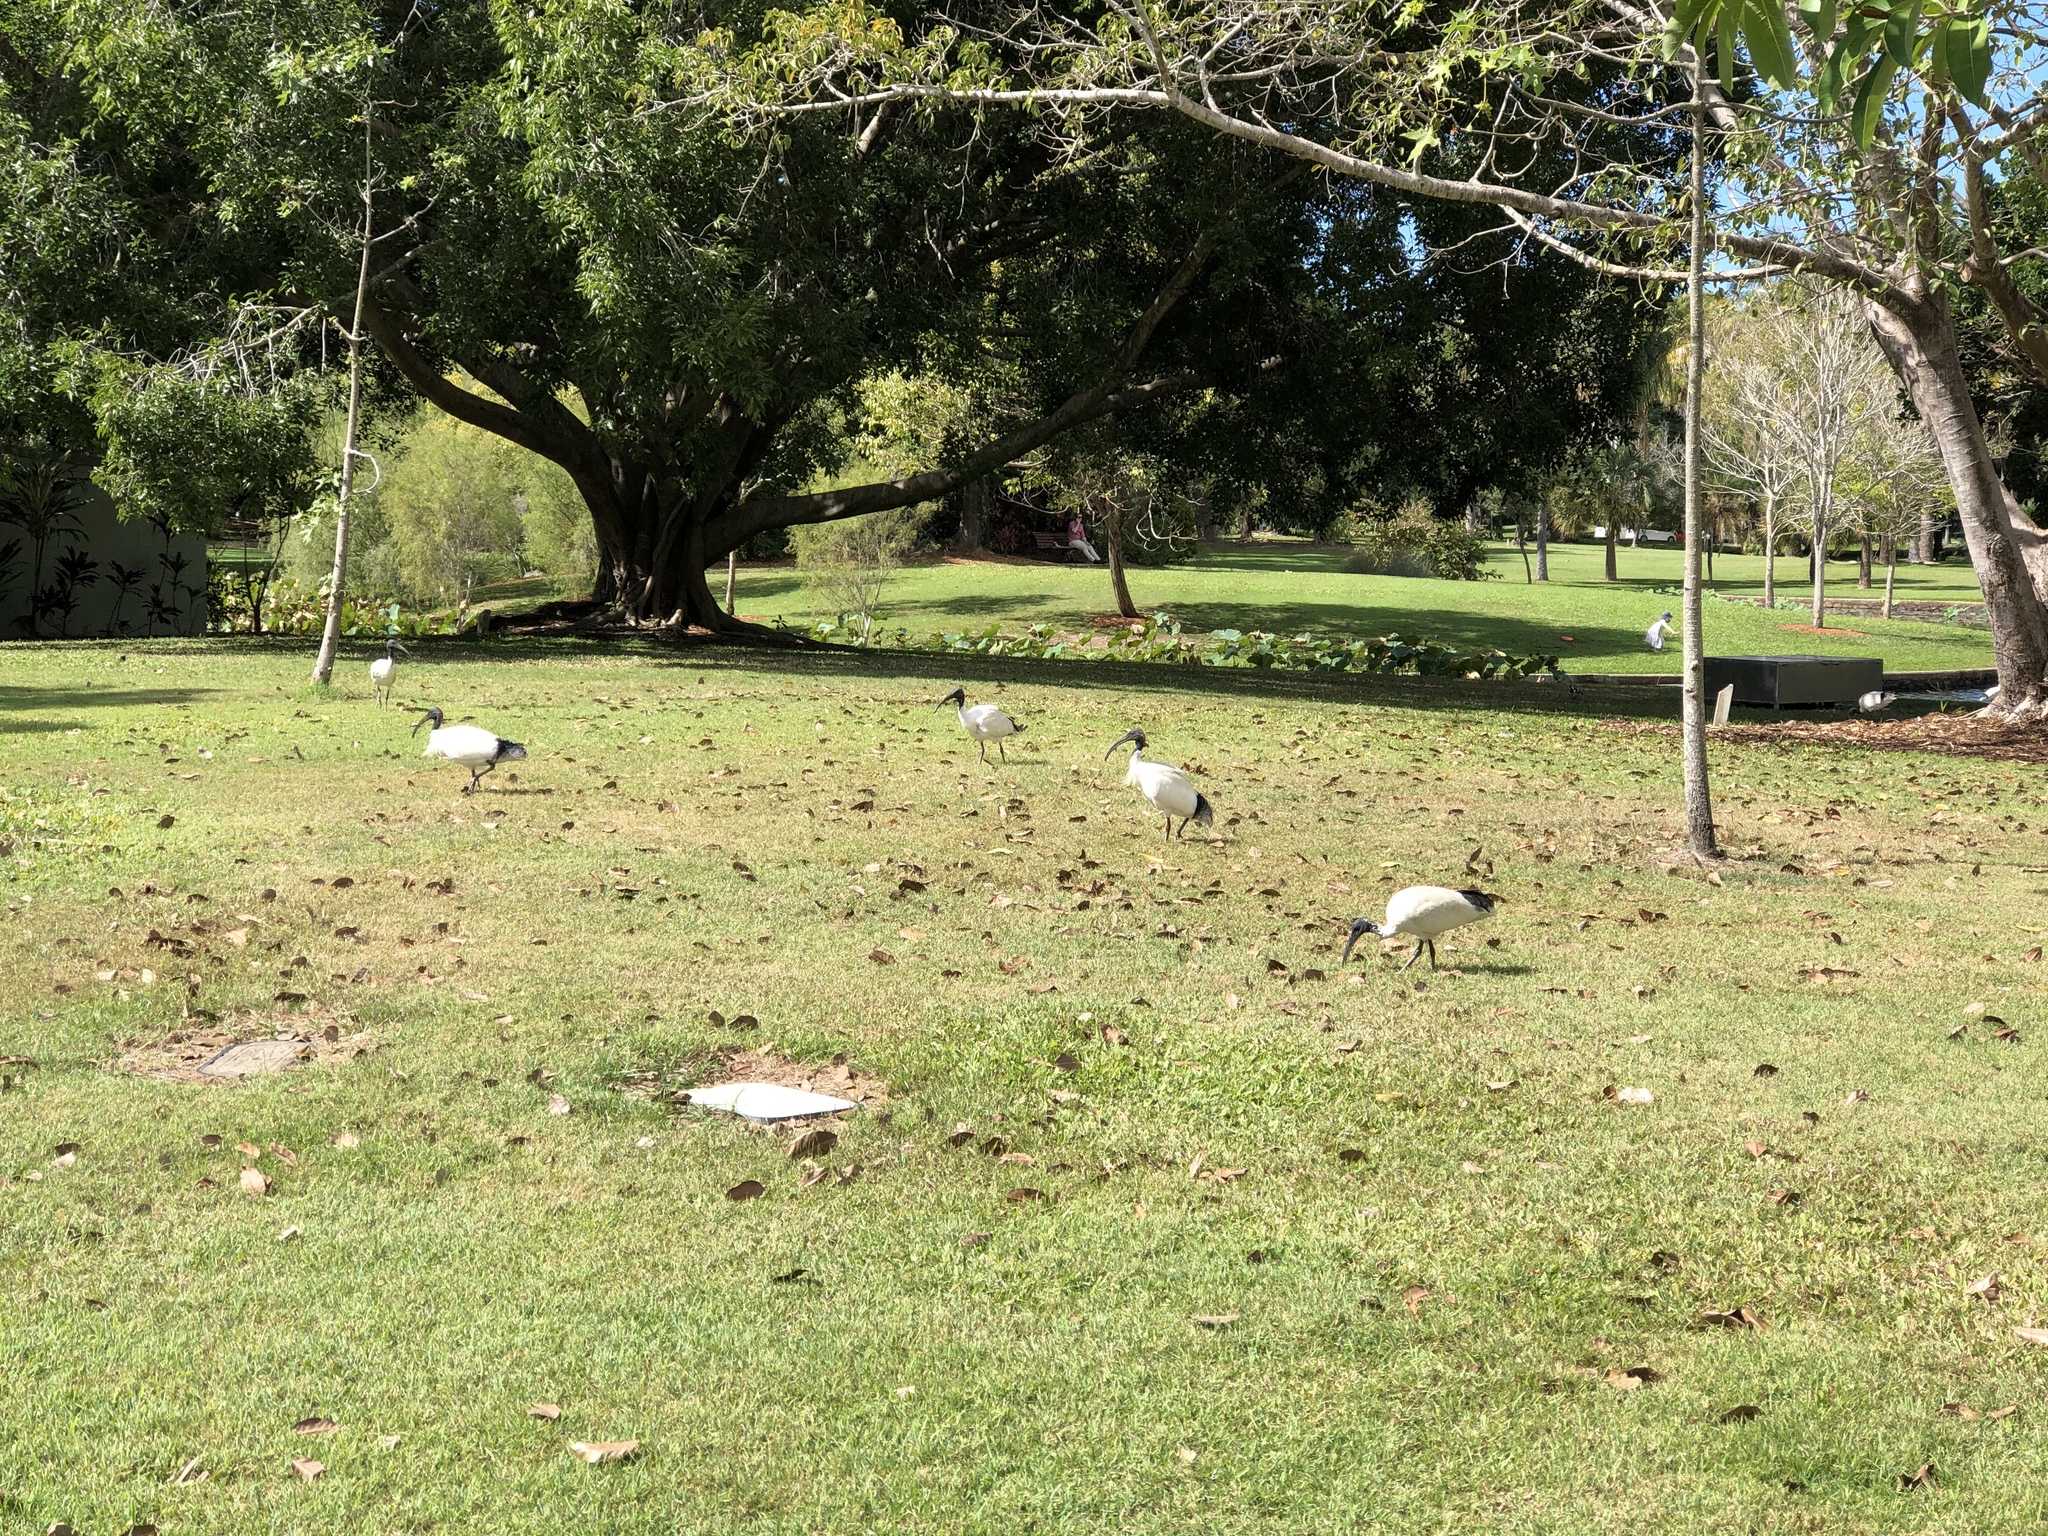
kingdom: Animalia
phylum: Chordata
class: Aves
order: Pelecaniformes
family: Threskiornithidae
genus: Threskiornis
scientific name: Threskiornis molucca
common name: Australian white ibis
